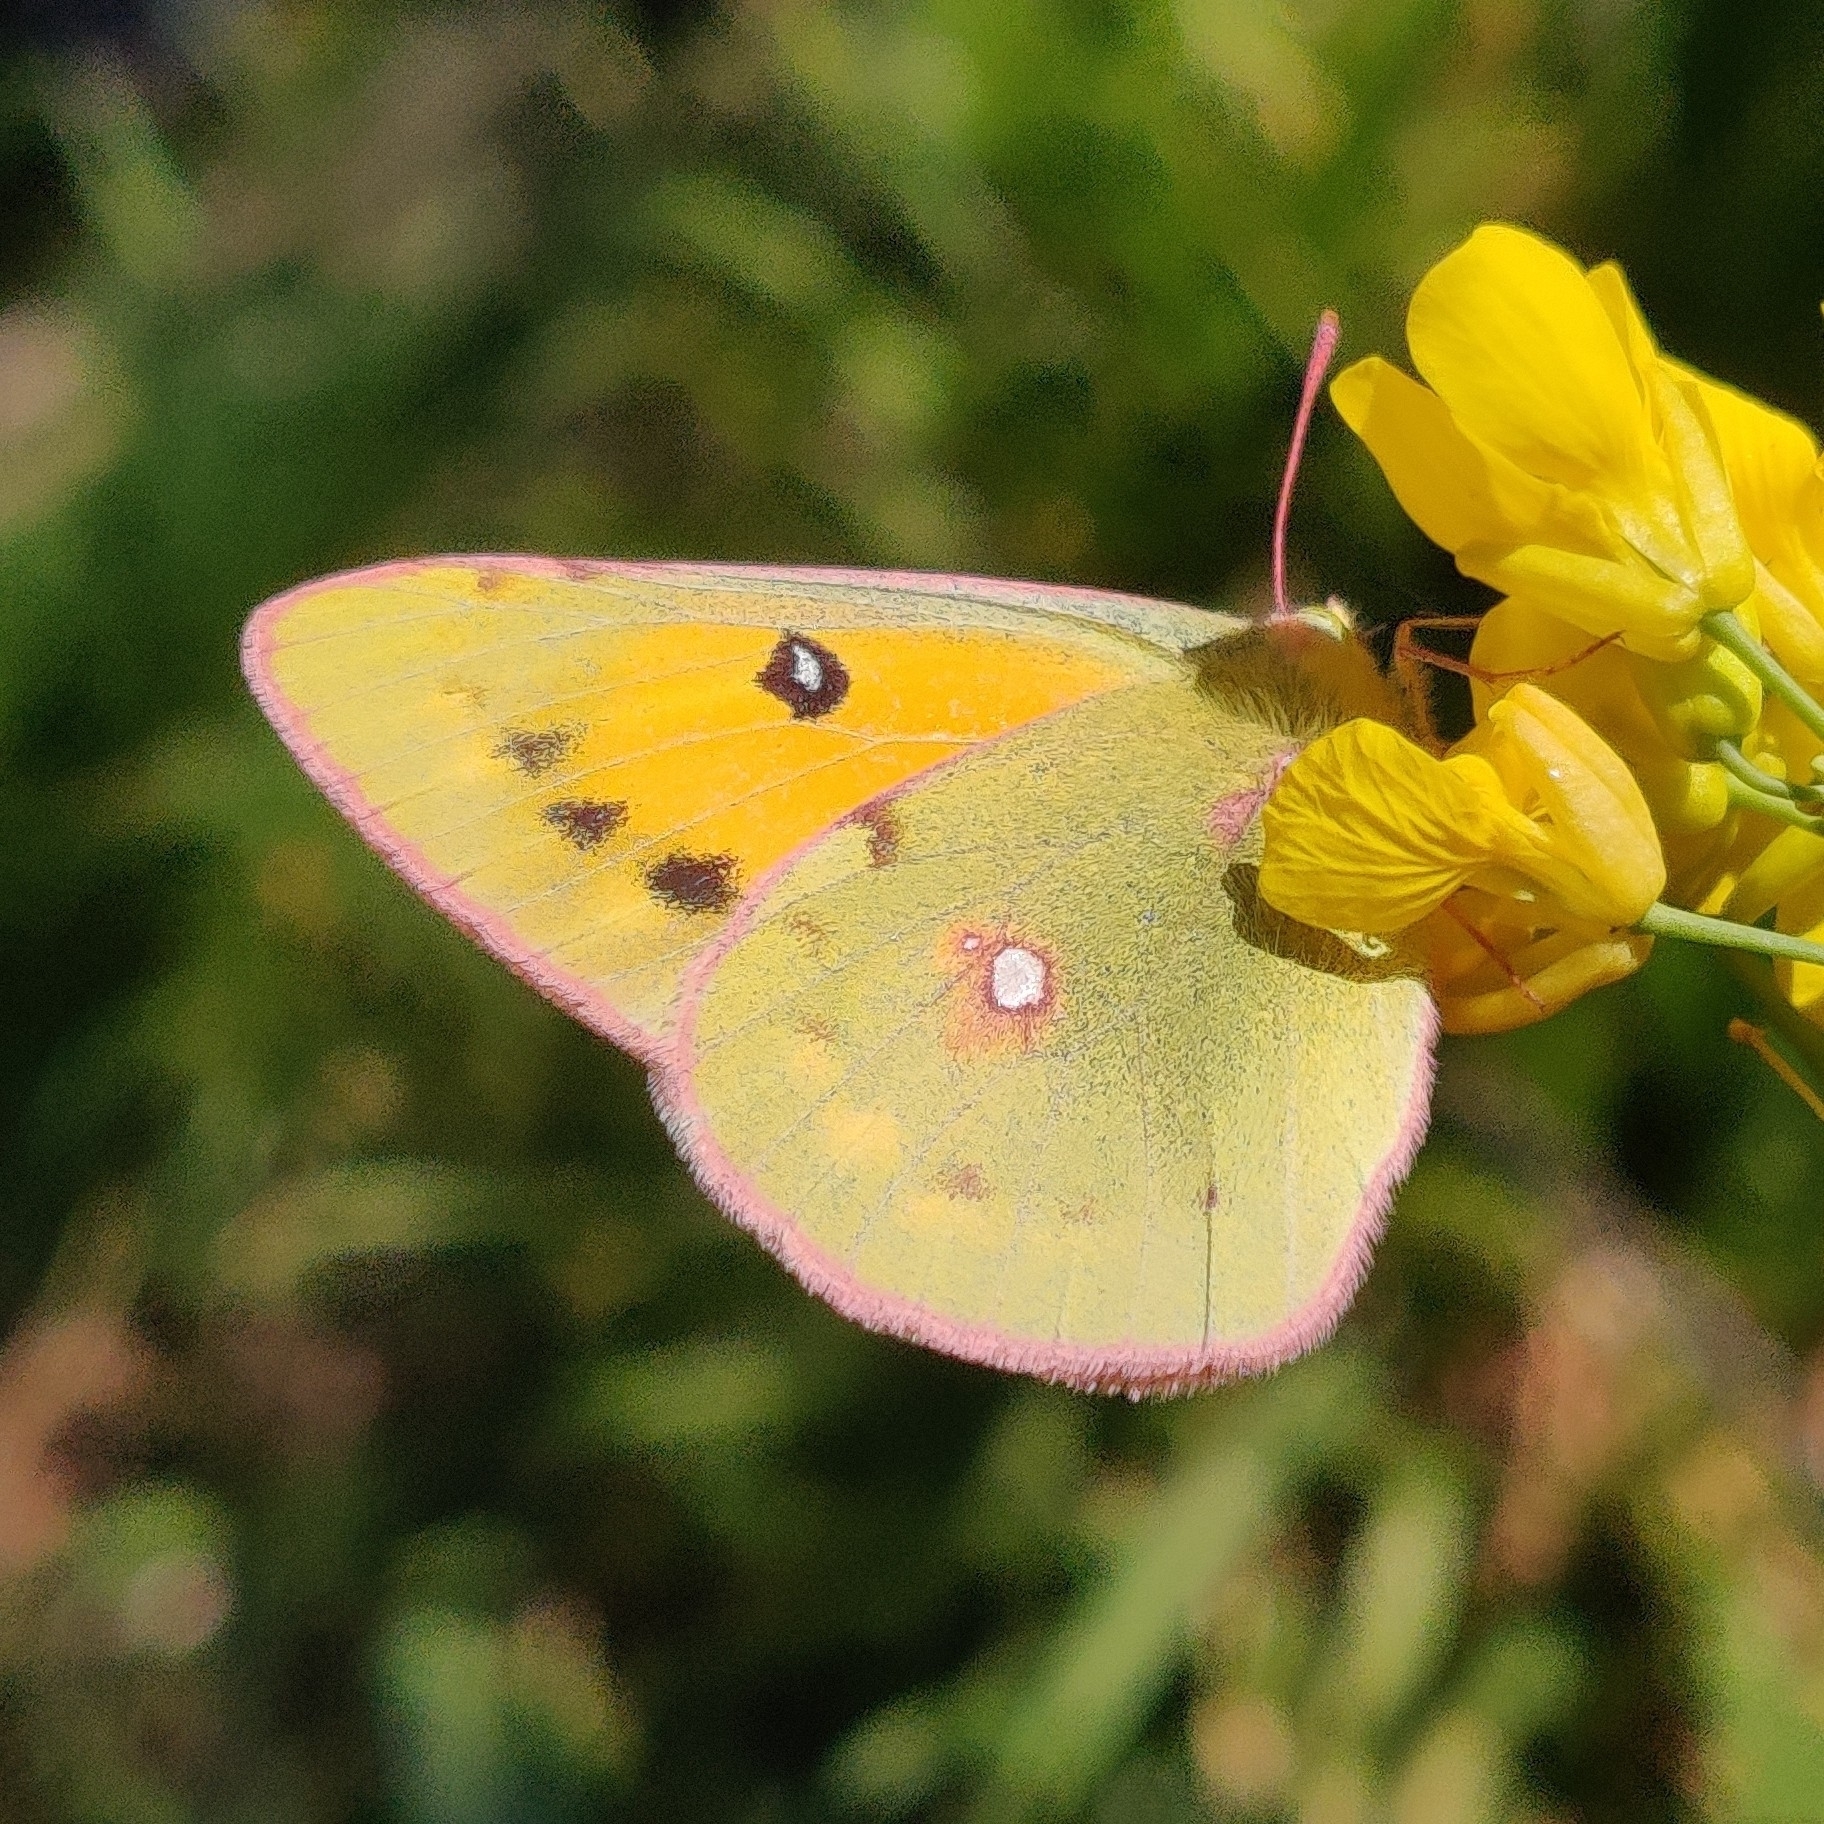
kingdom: Animalia
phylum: Arthropoda
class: Insecta
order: Lepidoptera
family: Pieridae
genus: Colias
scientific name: Colias fieldii
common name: Dark clouded yellow
